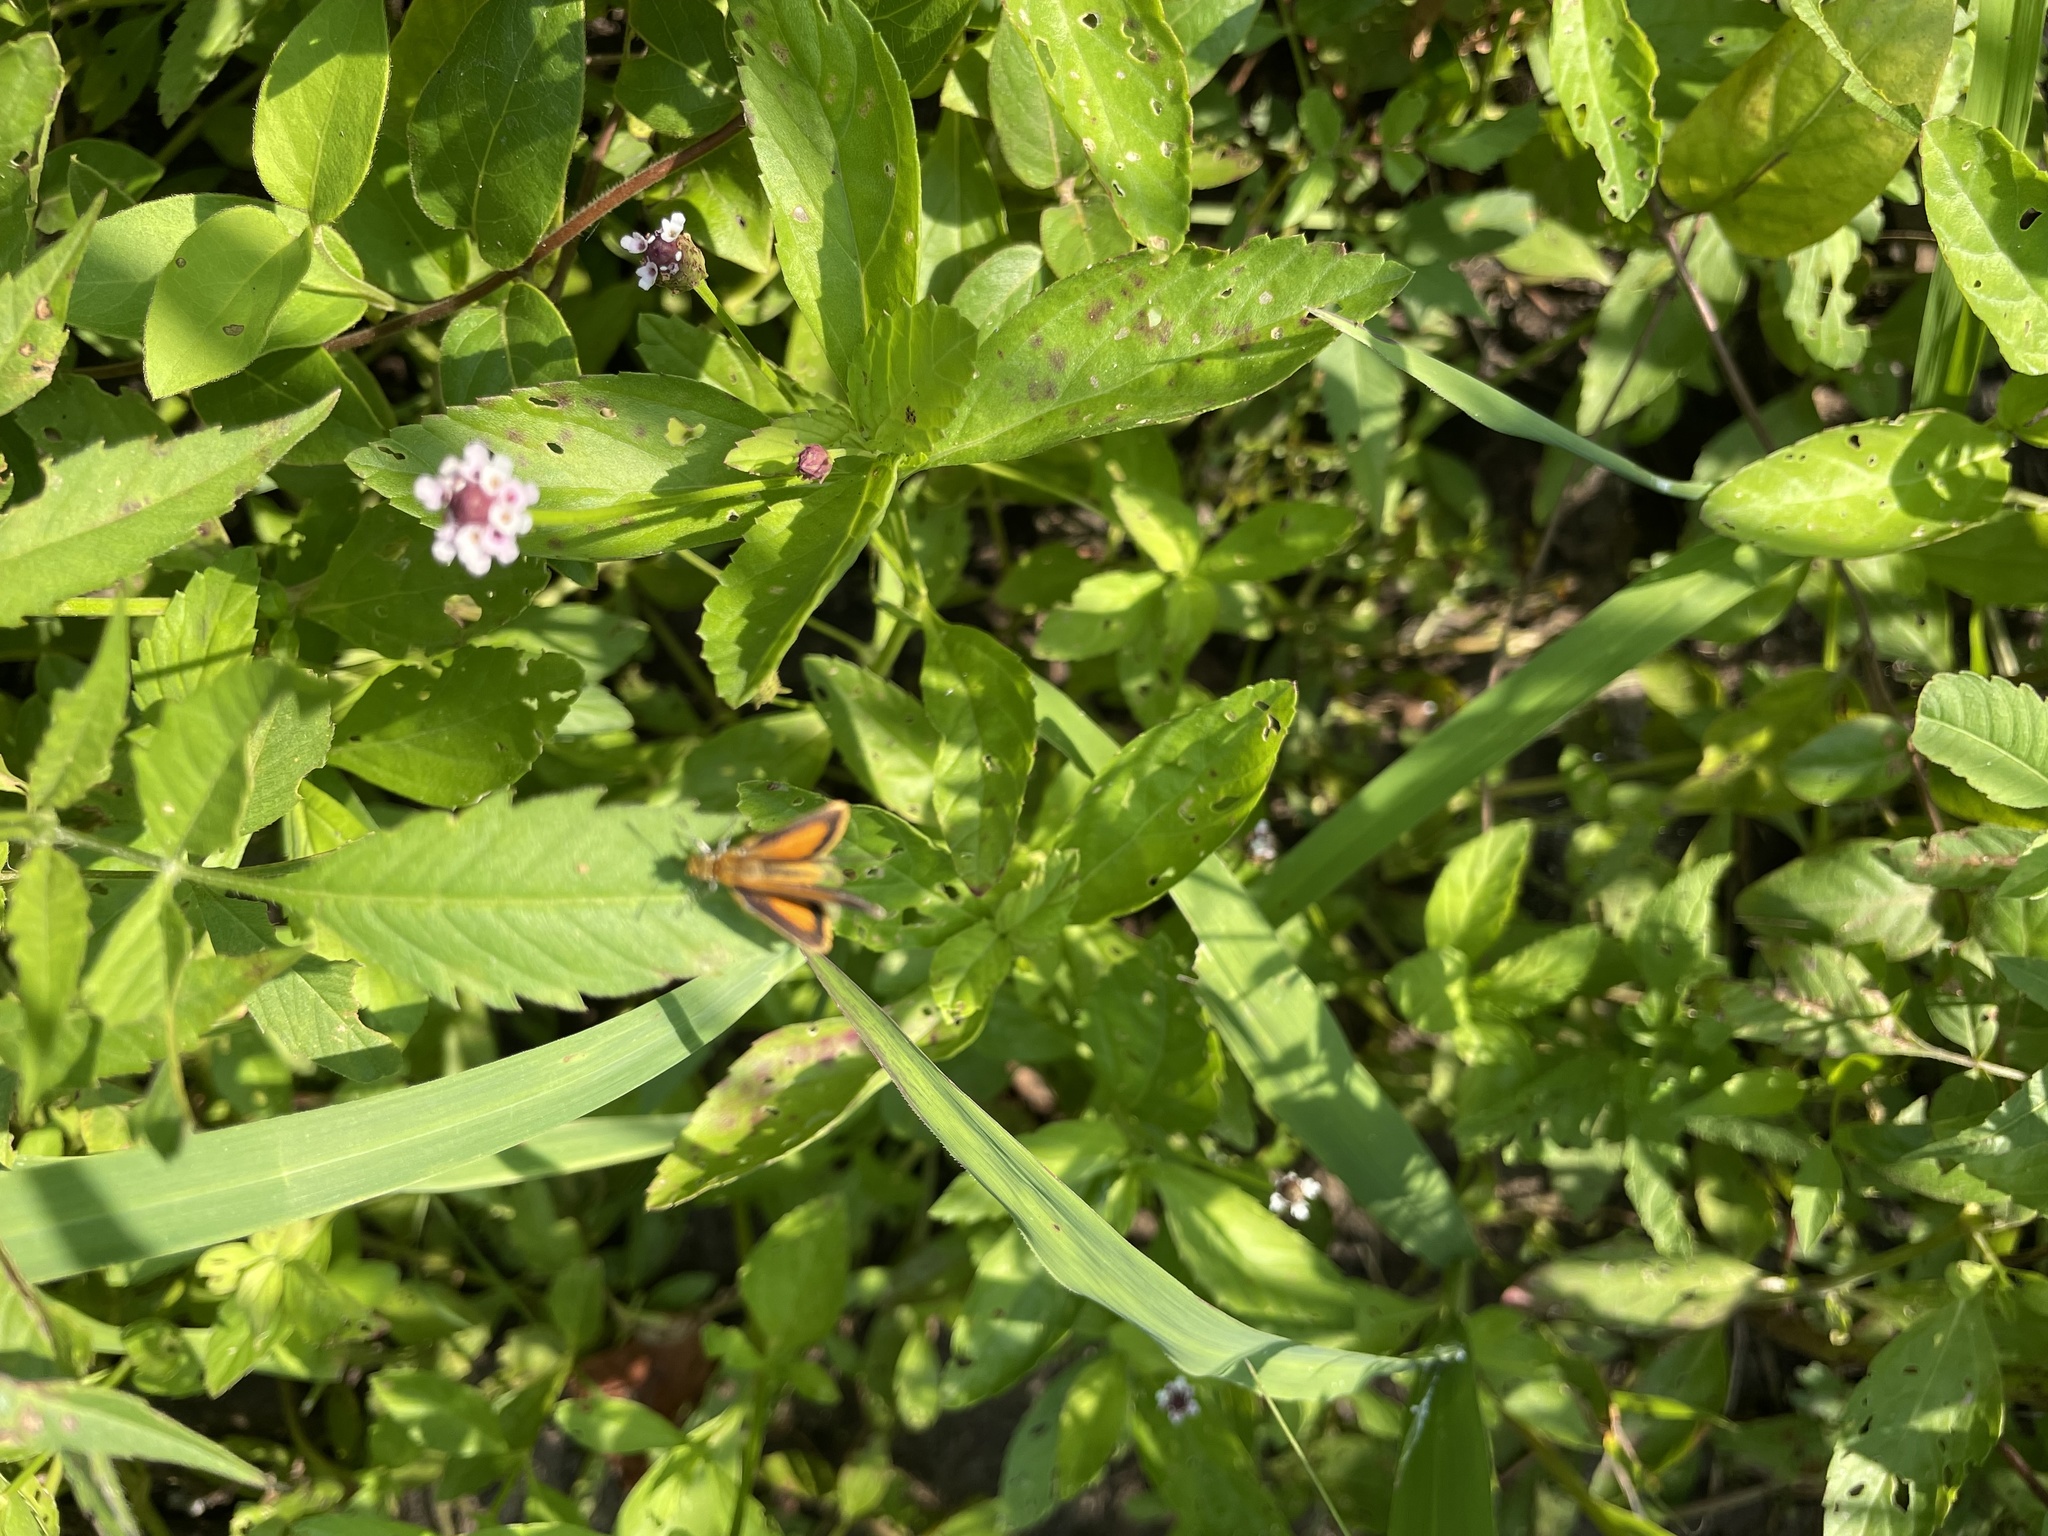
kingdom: Animalia
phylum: Arthropoda
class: Insecta
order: Lepidoptera
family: Hesperiidae
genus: Ancyloxypha
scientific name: Ancyloxypha numitor
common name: Least skipper
